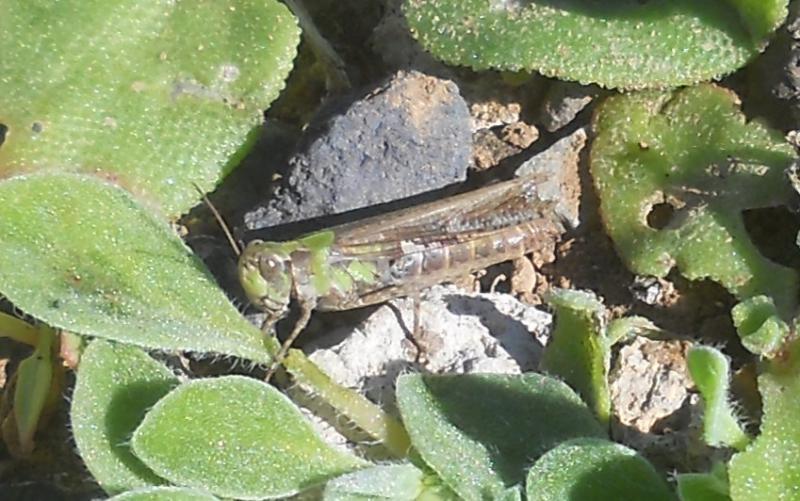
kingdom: Animalia
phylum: Arthropoda
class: Insecta
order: Orthoptera
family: Acrididae
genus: Aiolopus
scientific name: Aiolopus thalassinus
